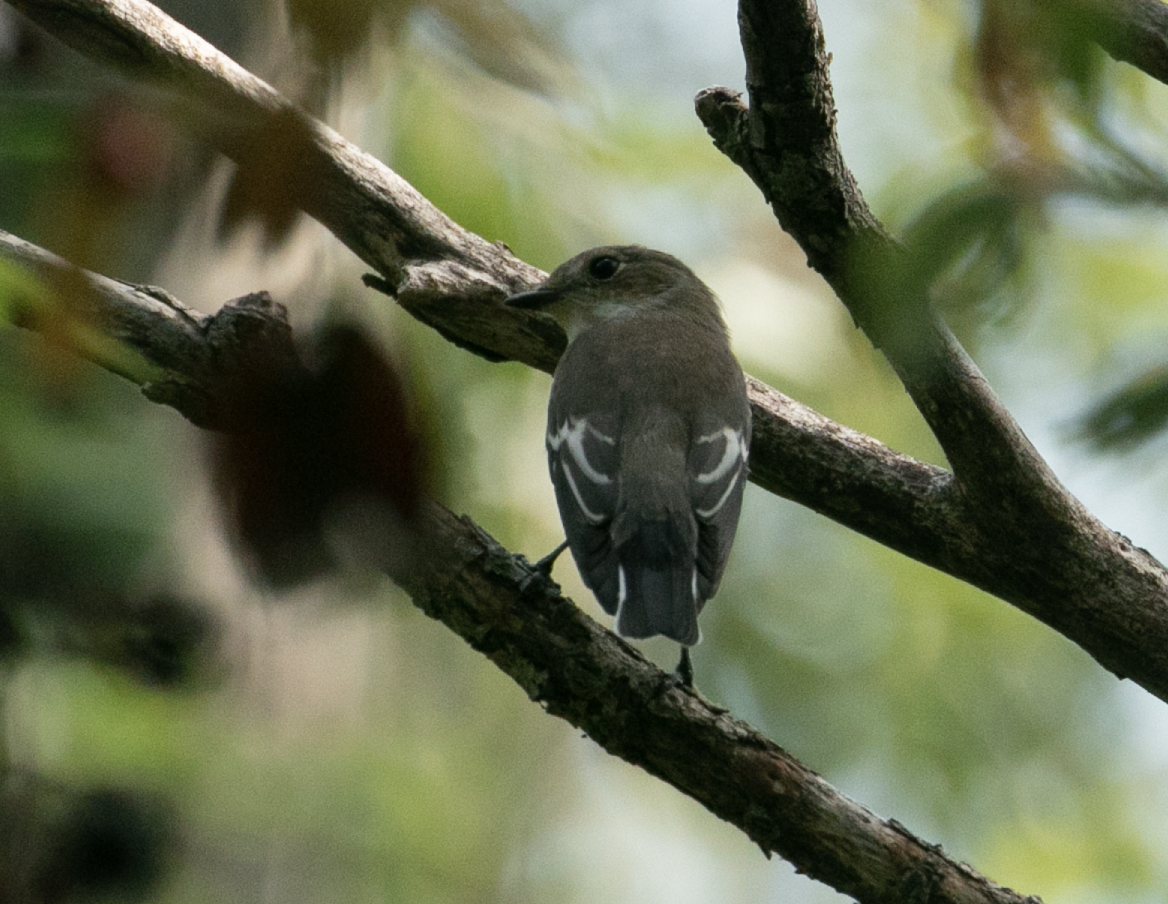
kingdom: Animalia
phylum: Chordata
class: Aves
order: Passeriformes
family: Muscicapidae
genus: Ficedula
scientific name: Ficedula hypoleuca
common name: European pied flycatcher
